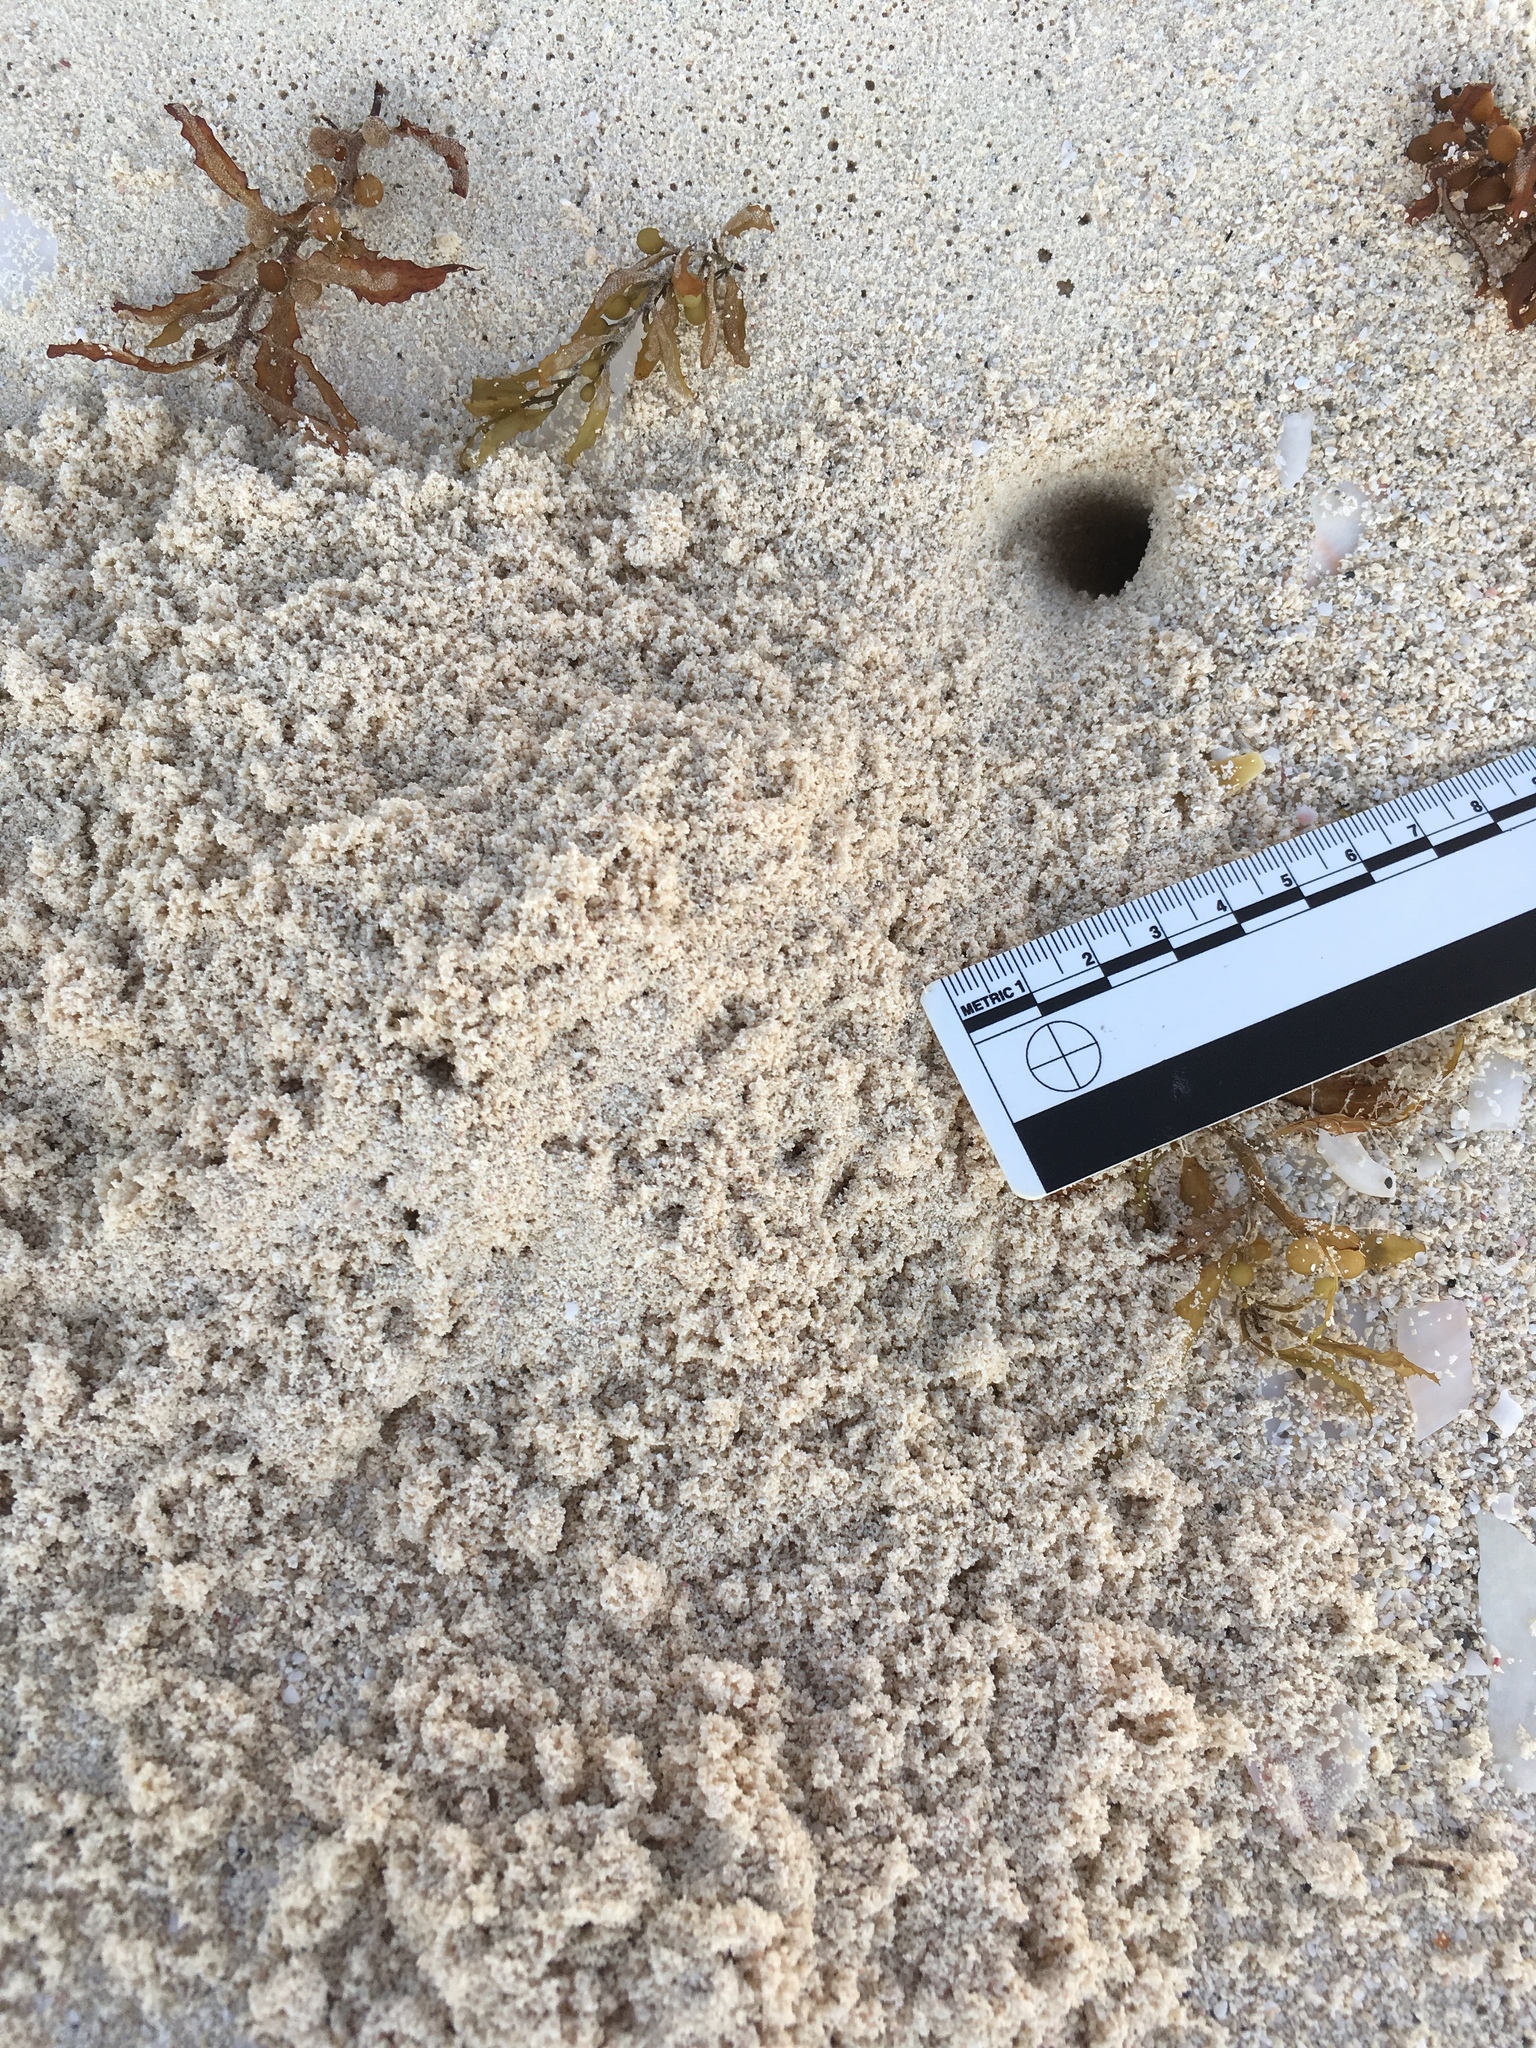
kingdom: Animalia
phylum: Arthropoda
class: Malacostraca
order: Decapoda
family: Ocypodidae
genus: Ocypode
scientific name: Ocypode quadrata
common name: Ghost crab
